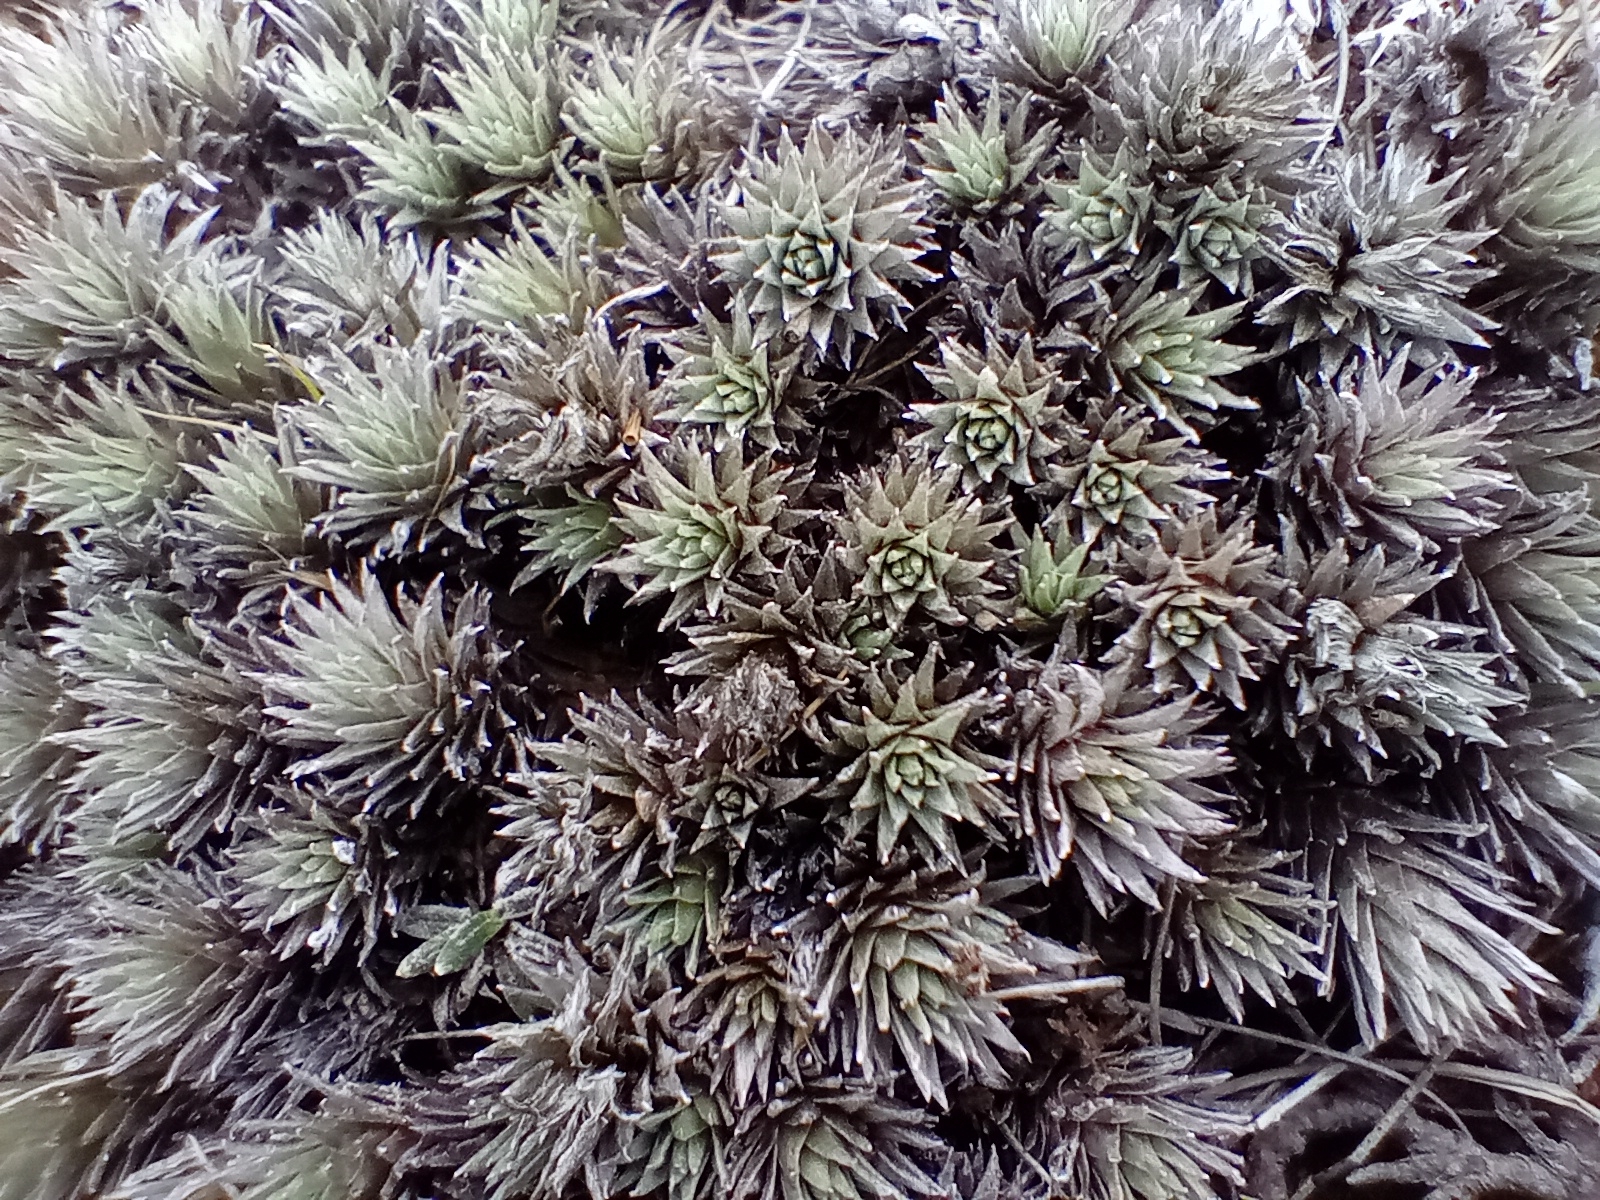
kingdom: Plantae
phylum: Tracheophyta
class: Magnoliopsida
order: Asterales
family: Asteraceae
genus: Raoulia
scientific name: Raoulia grandiflora
